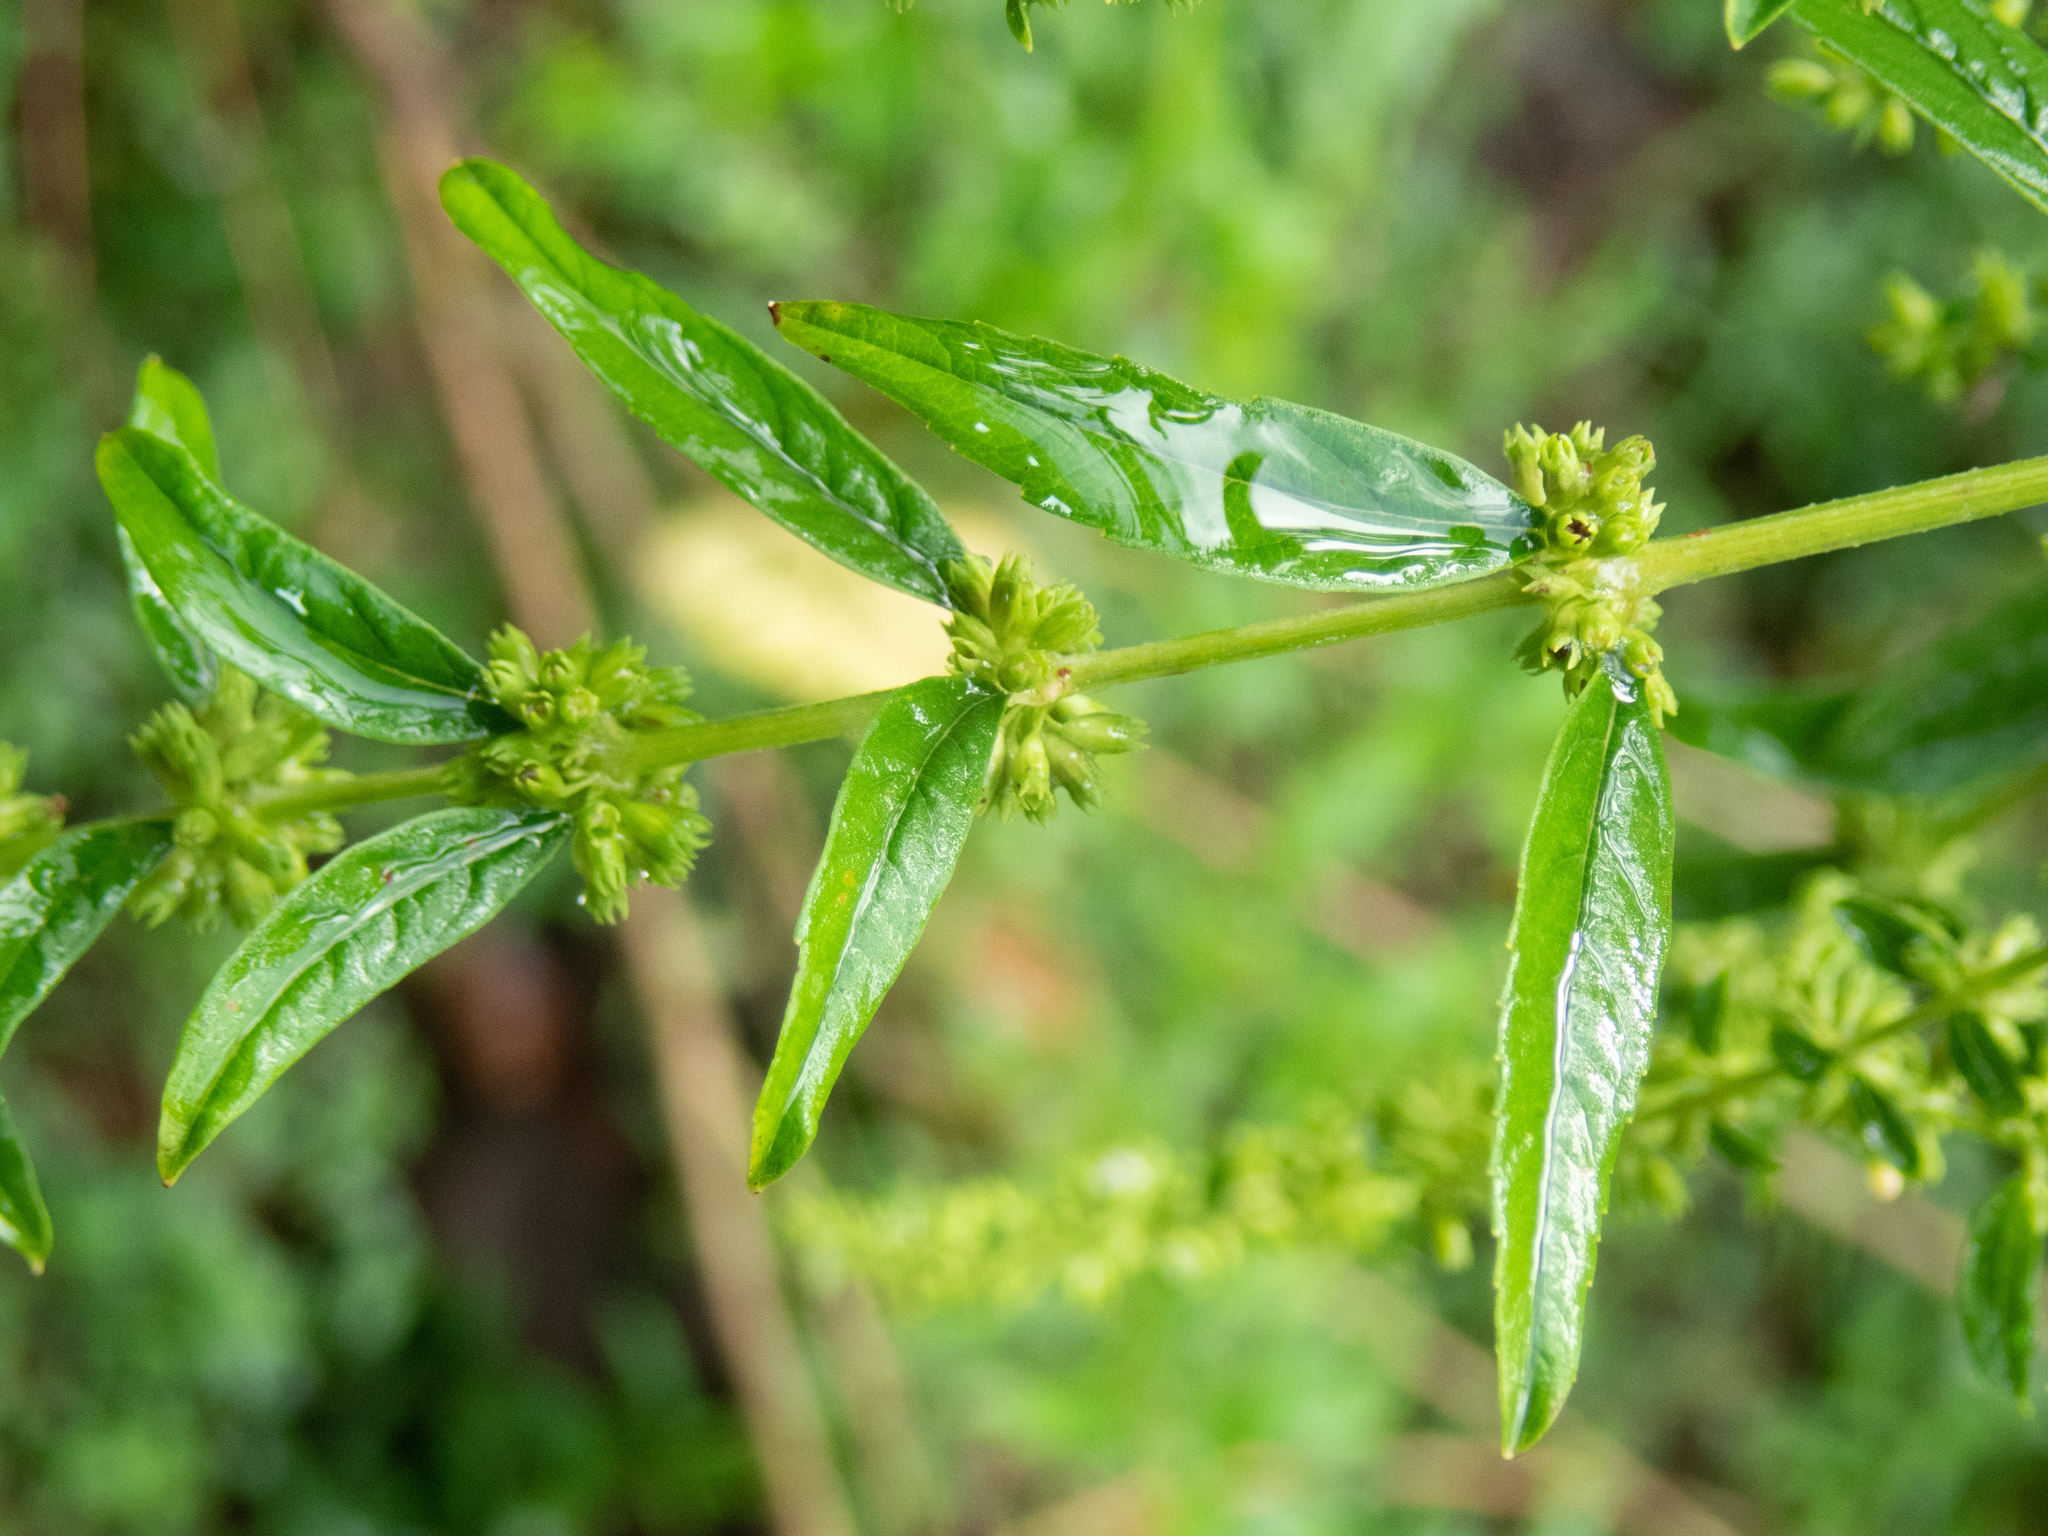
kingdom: Plantae
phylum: Tracheophyta
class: Magnoliopsida
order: Lamiales
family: Lamiaceae
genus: Condea
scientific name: Condea verticillata
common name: John charles
